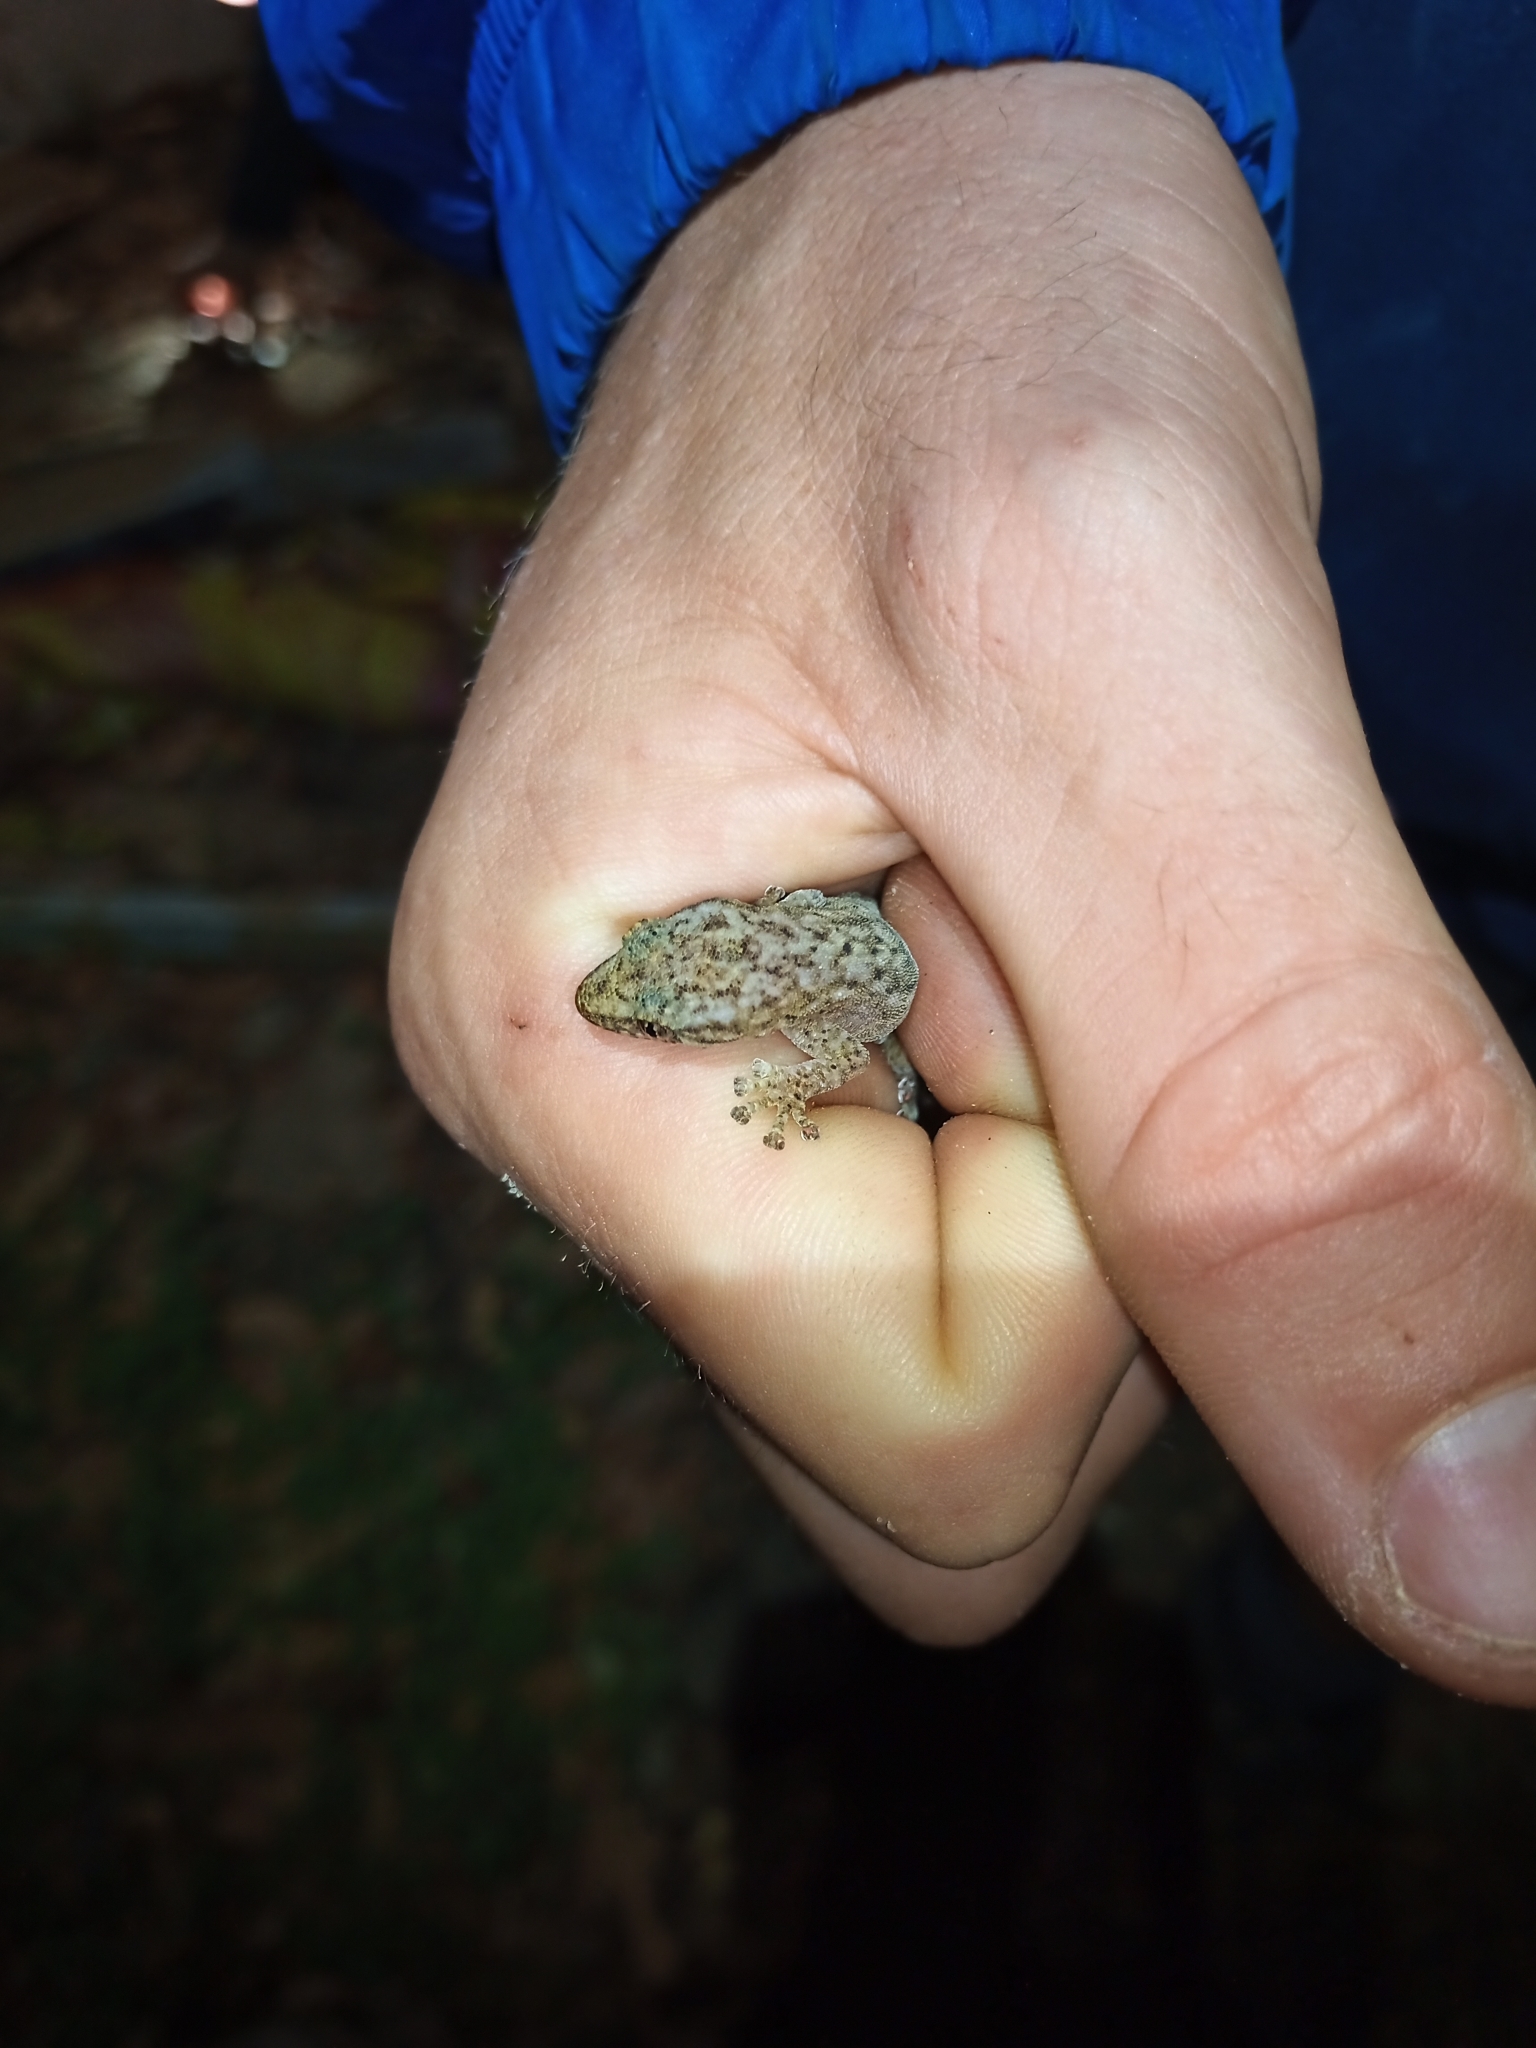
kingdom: Animalia
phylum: Chordata
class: Squamata
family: Gekkonidae
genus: Afrogecko
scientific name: Afrogecko porphyreus
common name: Marbled leaf-toed gecko
